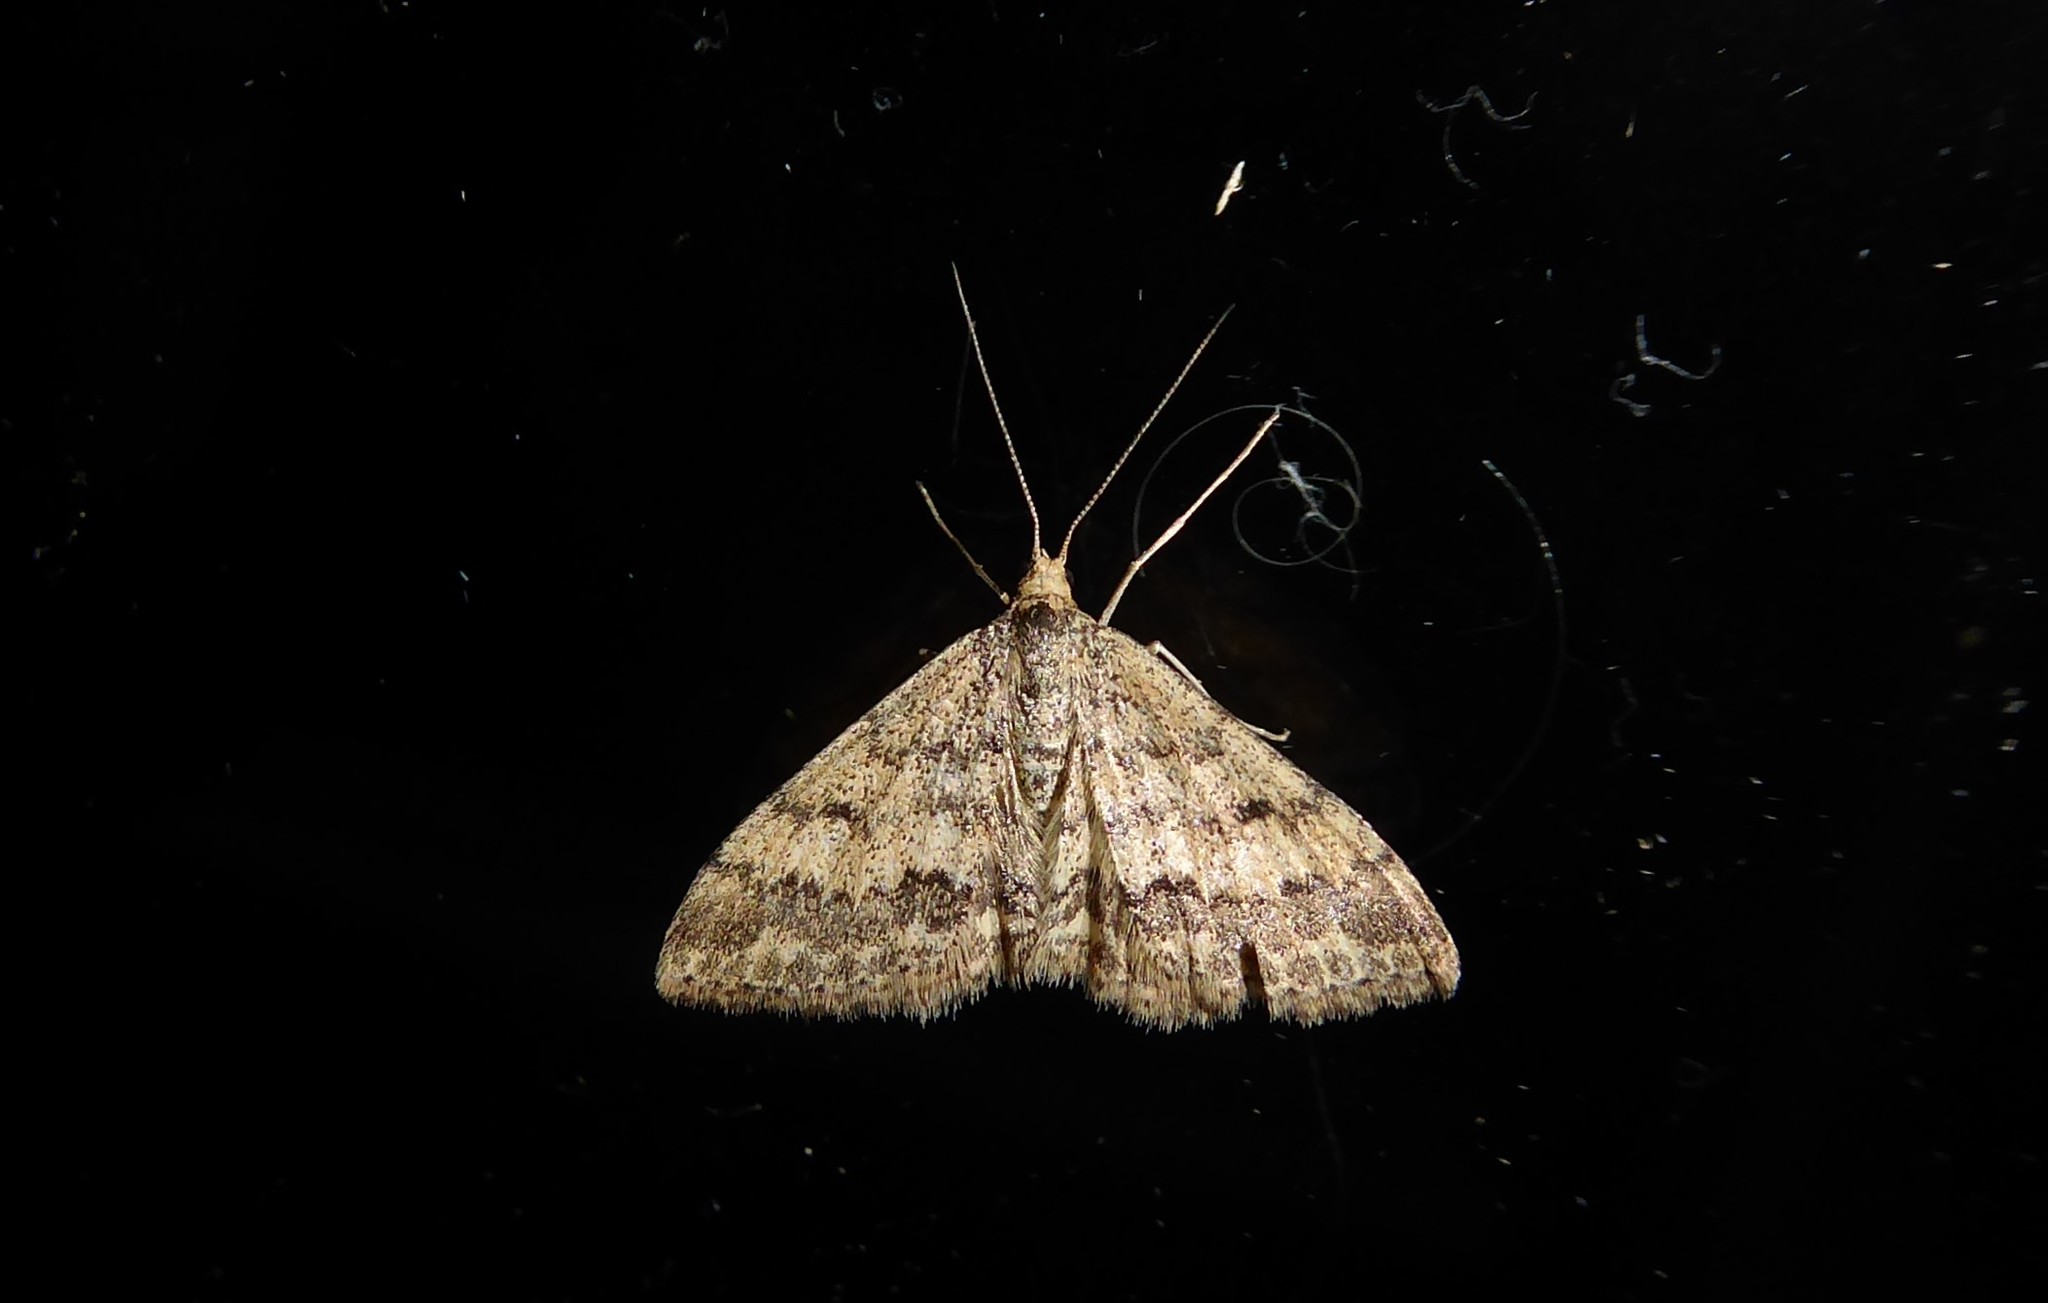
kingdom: Animalia
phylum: Arthropoda
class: Insecta
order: Lepidoptera
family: Geometridae
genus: Scopula
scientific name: Scopula rubraria
